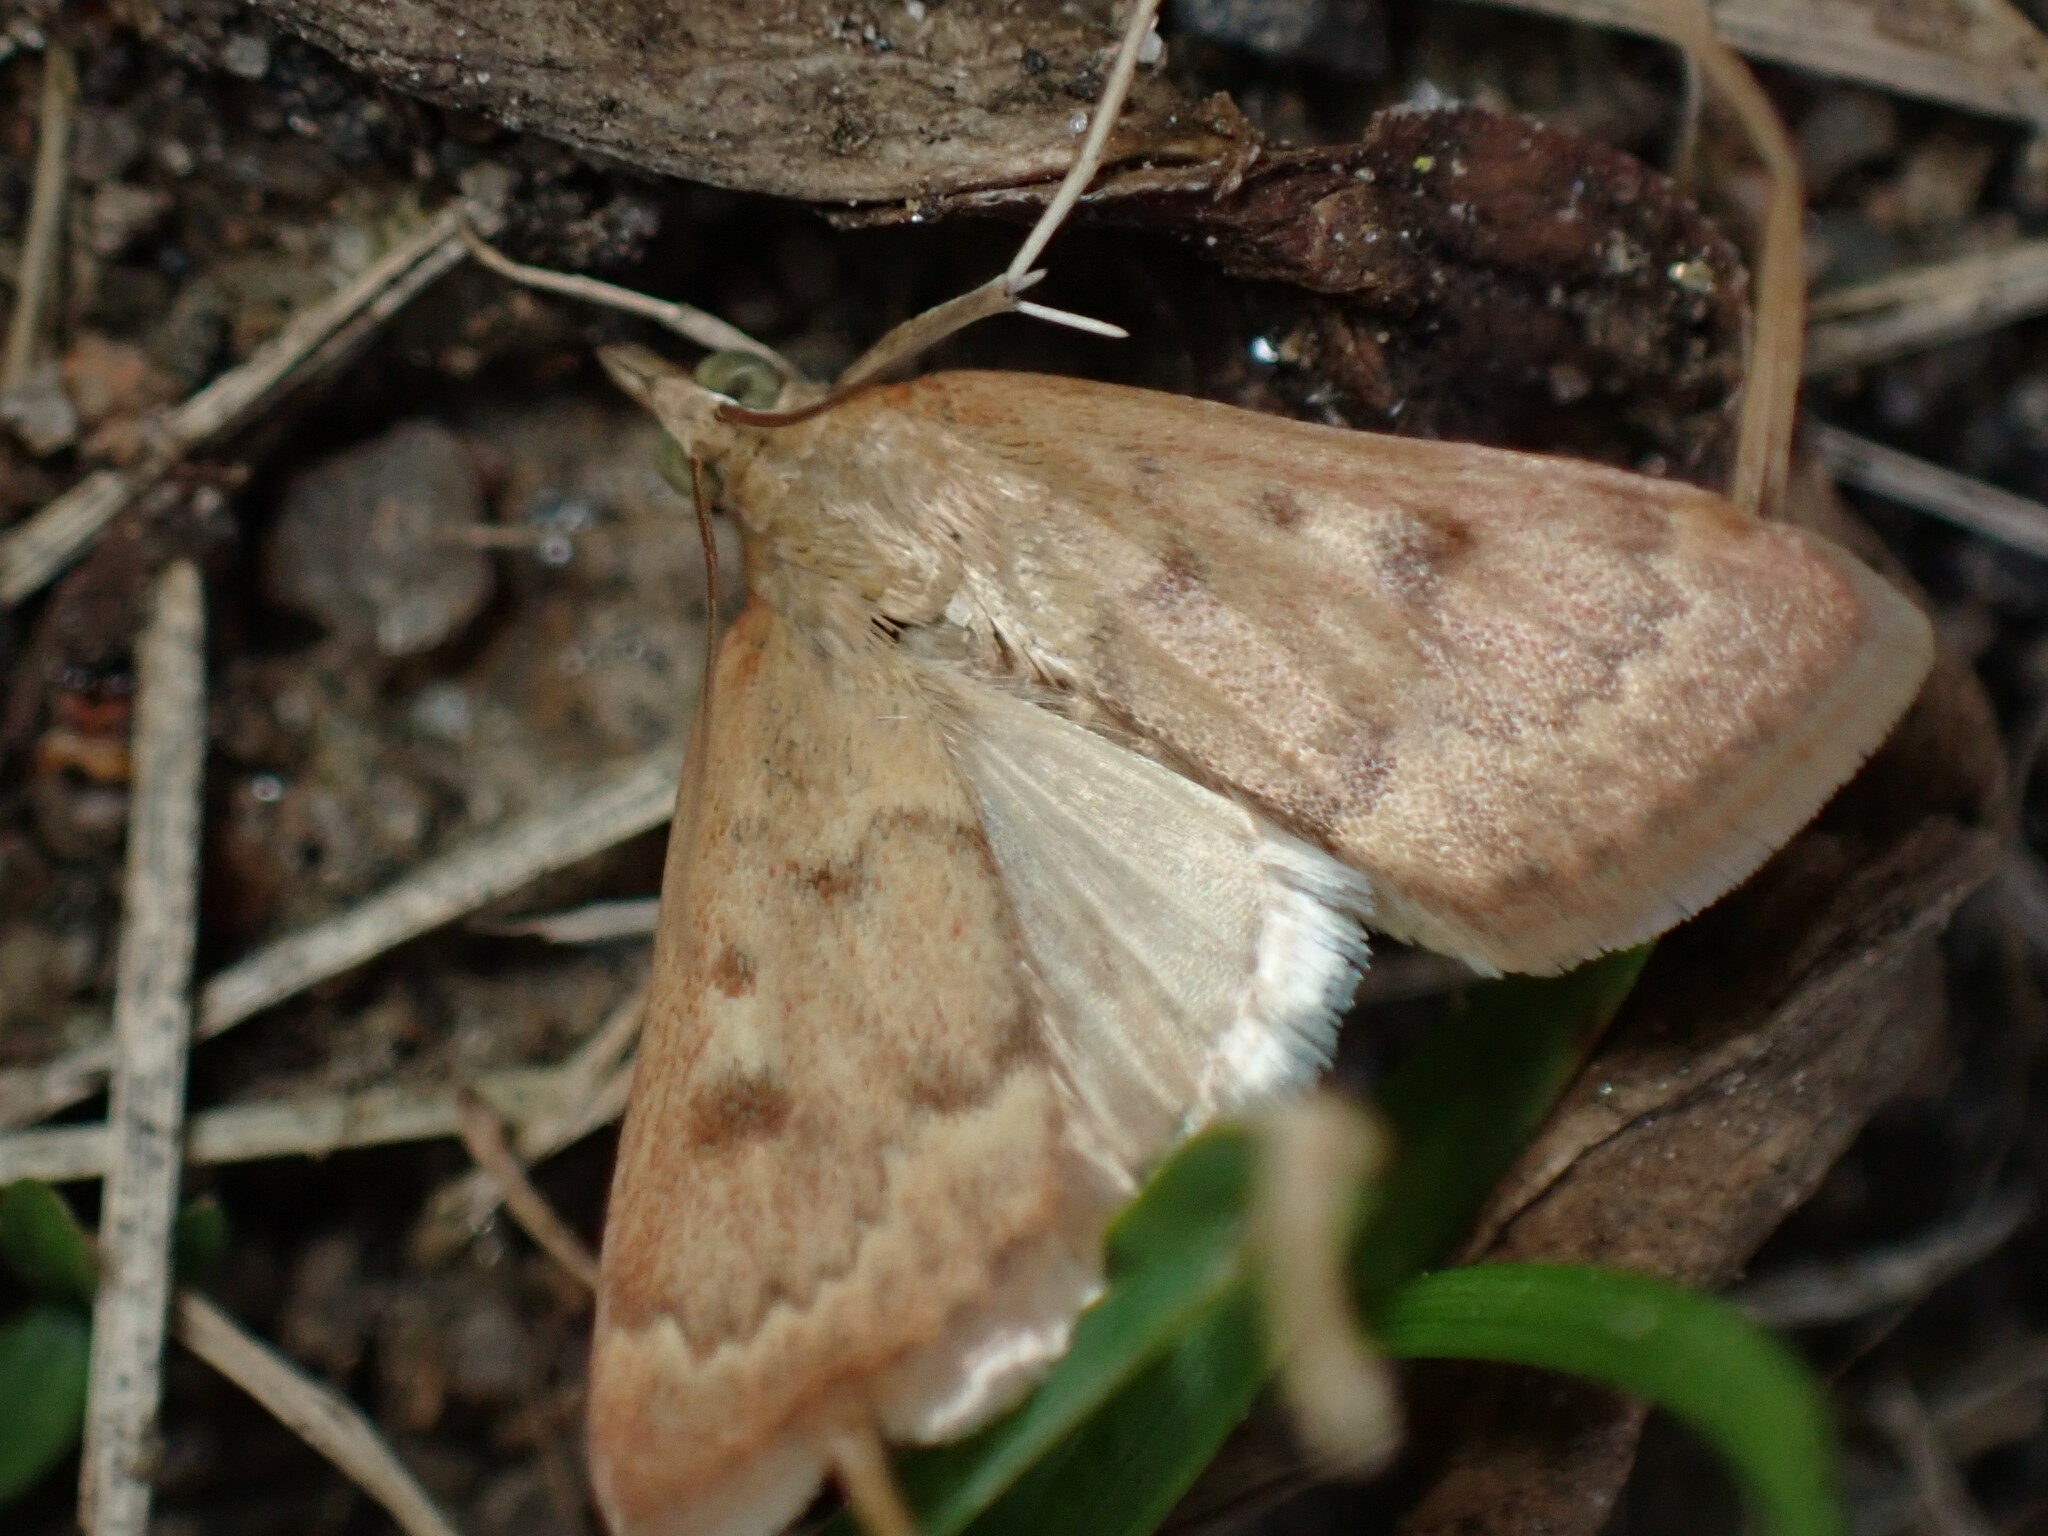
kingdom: Animalia
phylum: Arthropoda
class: Insecta
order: Lepidoptera
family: Crambidae
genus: Achyra
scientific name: Achyra rantalis
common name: Garden webworm
